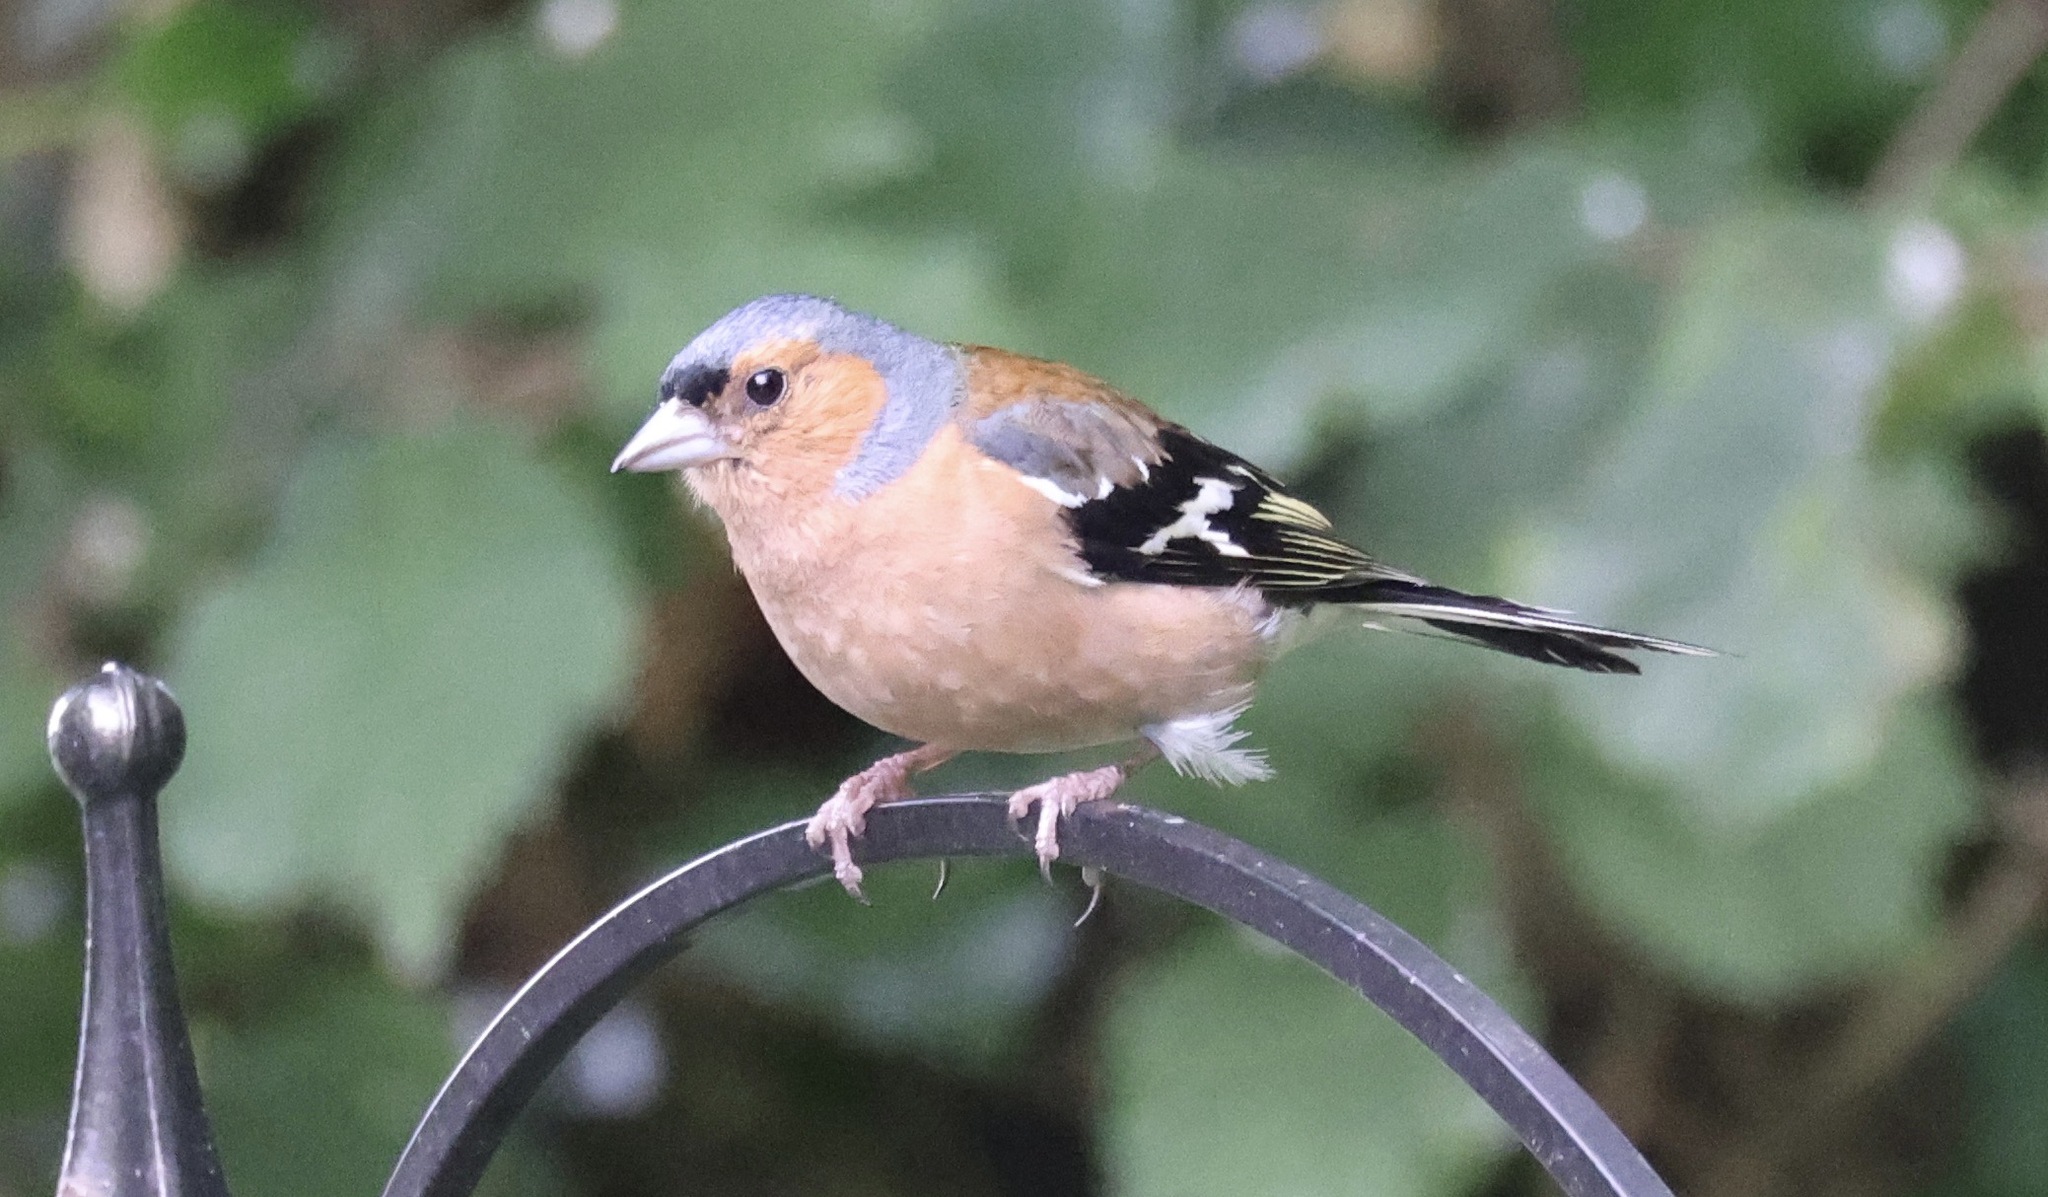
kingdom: Animalia
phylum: Chordata
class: Aves
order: Passeriformes
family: Fringillidae
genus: Fringilla
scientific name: Fringilla coelebs
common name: Common chaffinch
